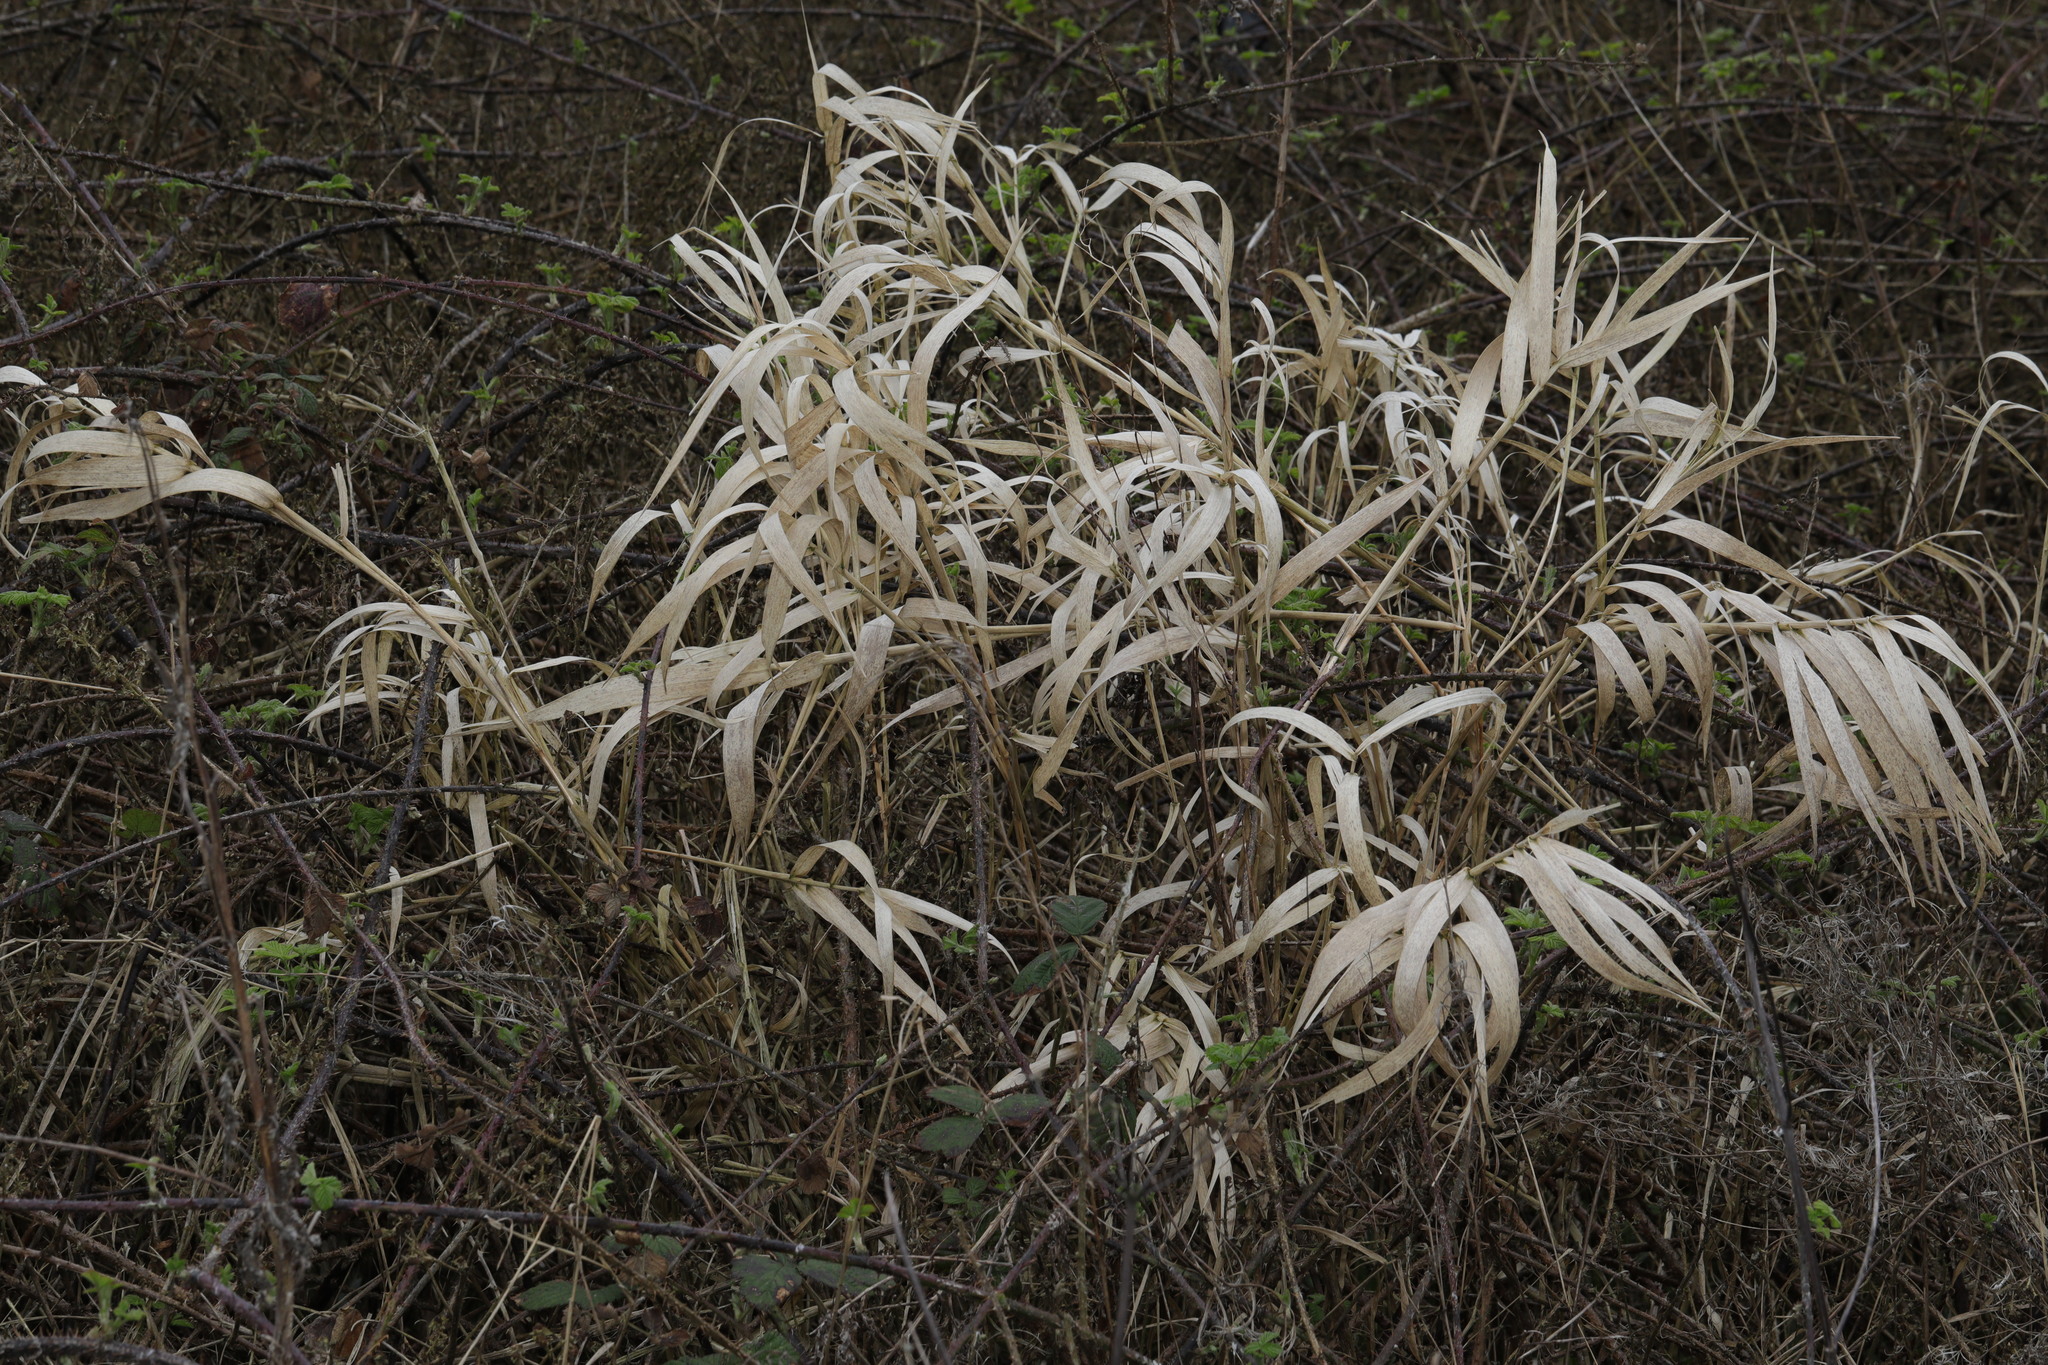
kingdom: Plantae
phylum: Tracheophyta
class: Liliopsida
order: Poales
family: Poaceae
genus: Phalaris
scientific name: Phalaris arundinacea
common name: Reed canary-grass
